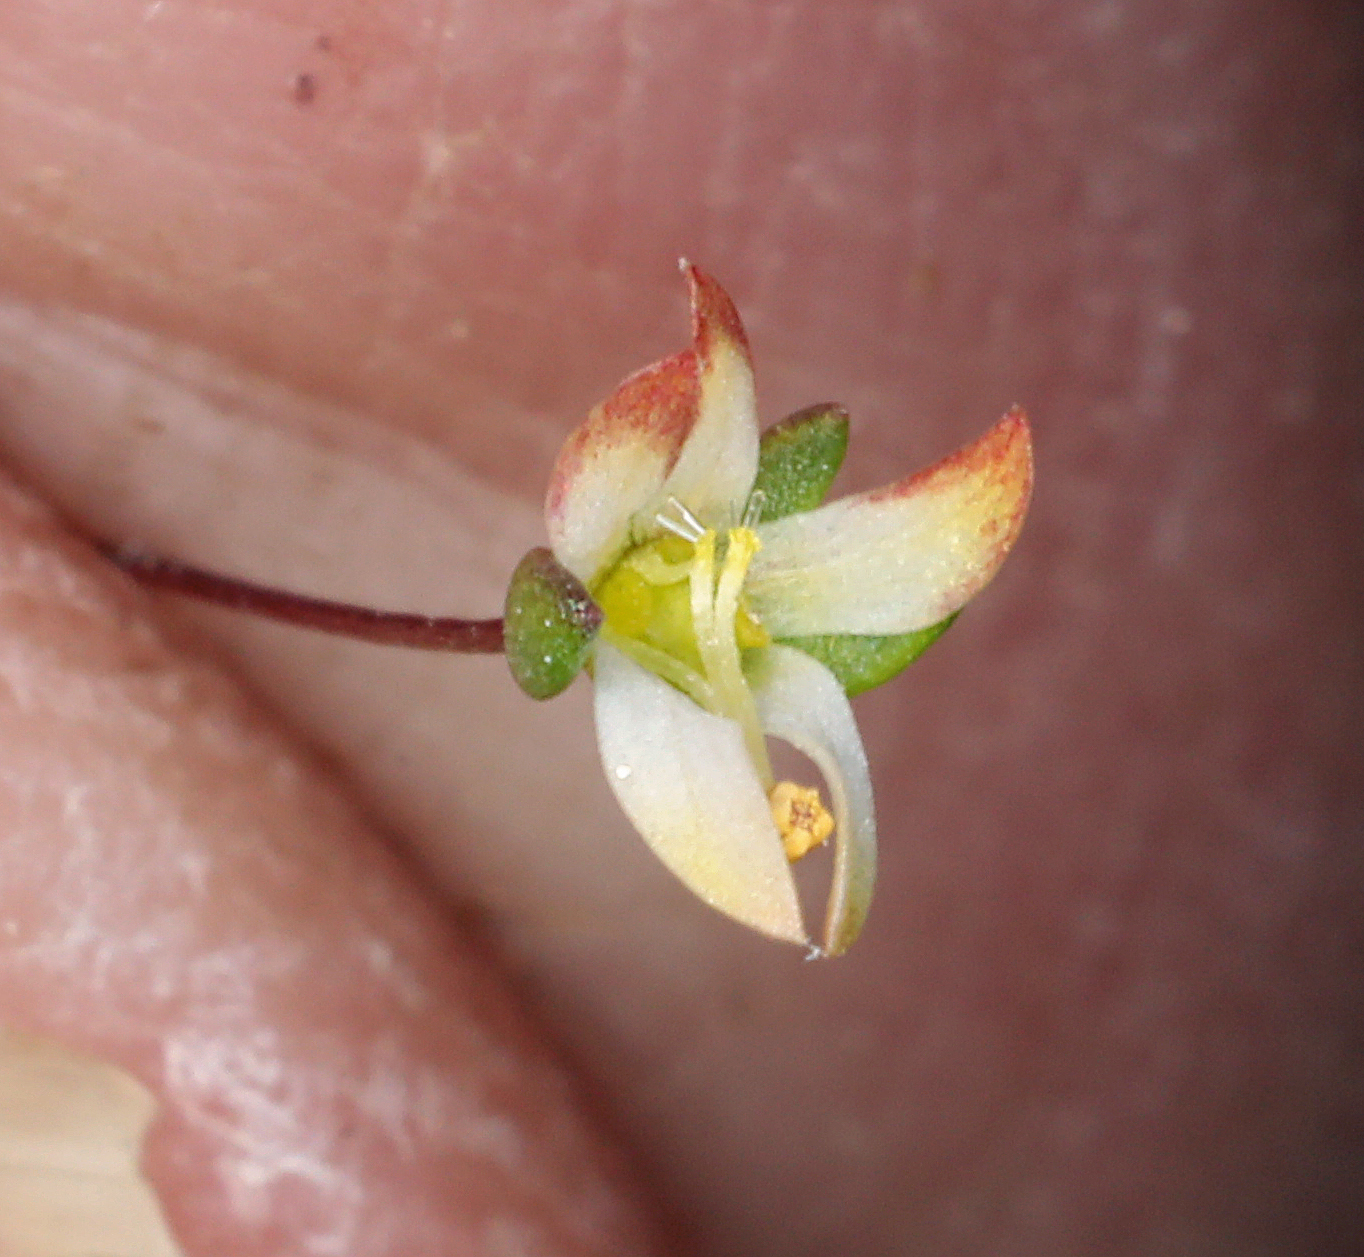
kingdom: Plantae
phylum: Tracheophyta
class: Magnoliopsida
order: Asterales
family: Campanulaceae
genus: Nemacladus
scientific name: Nemacladus morefieldii
